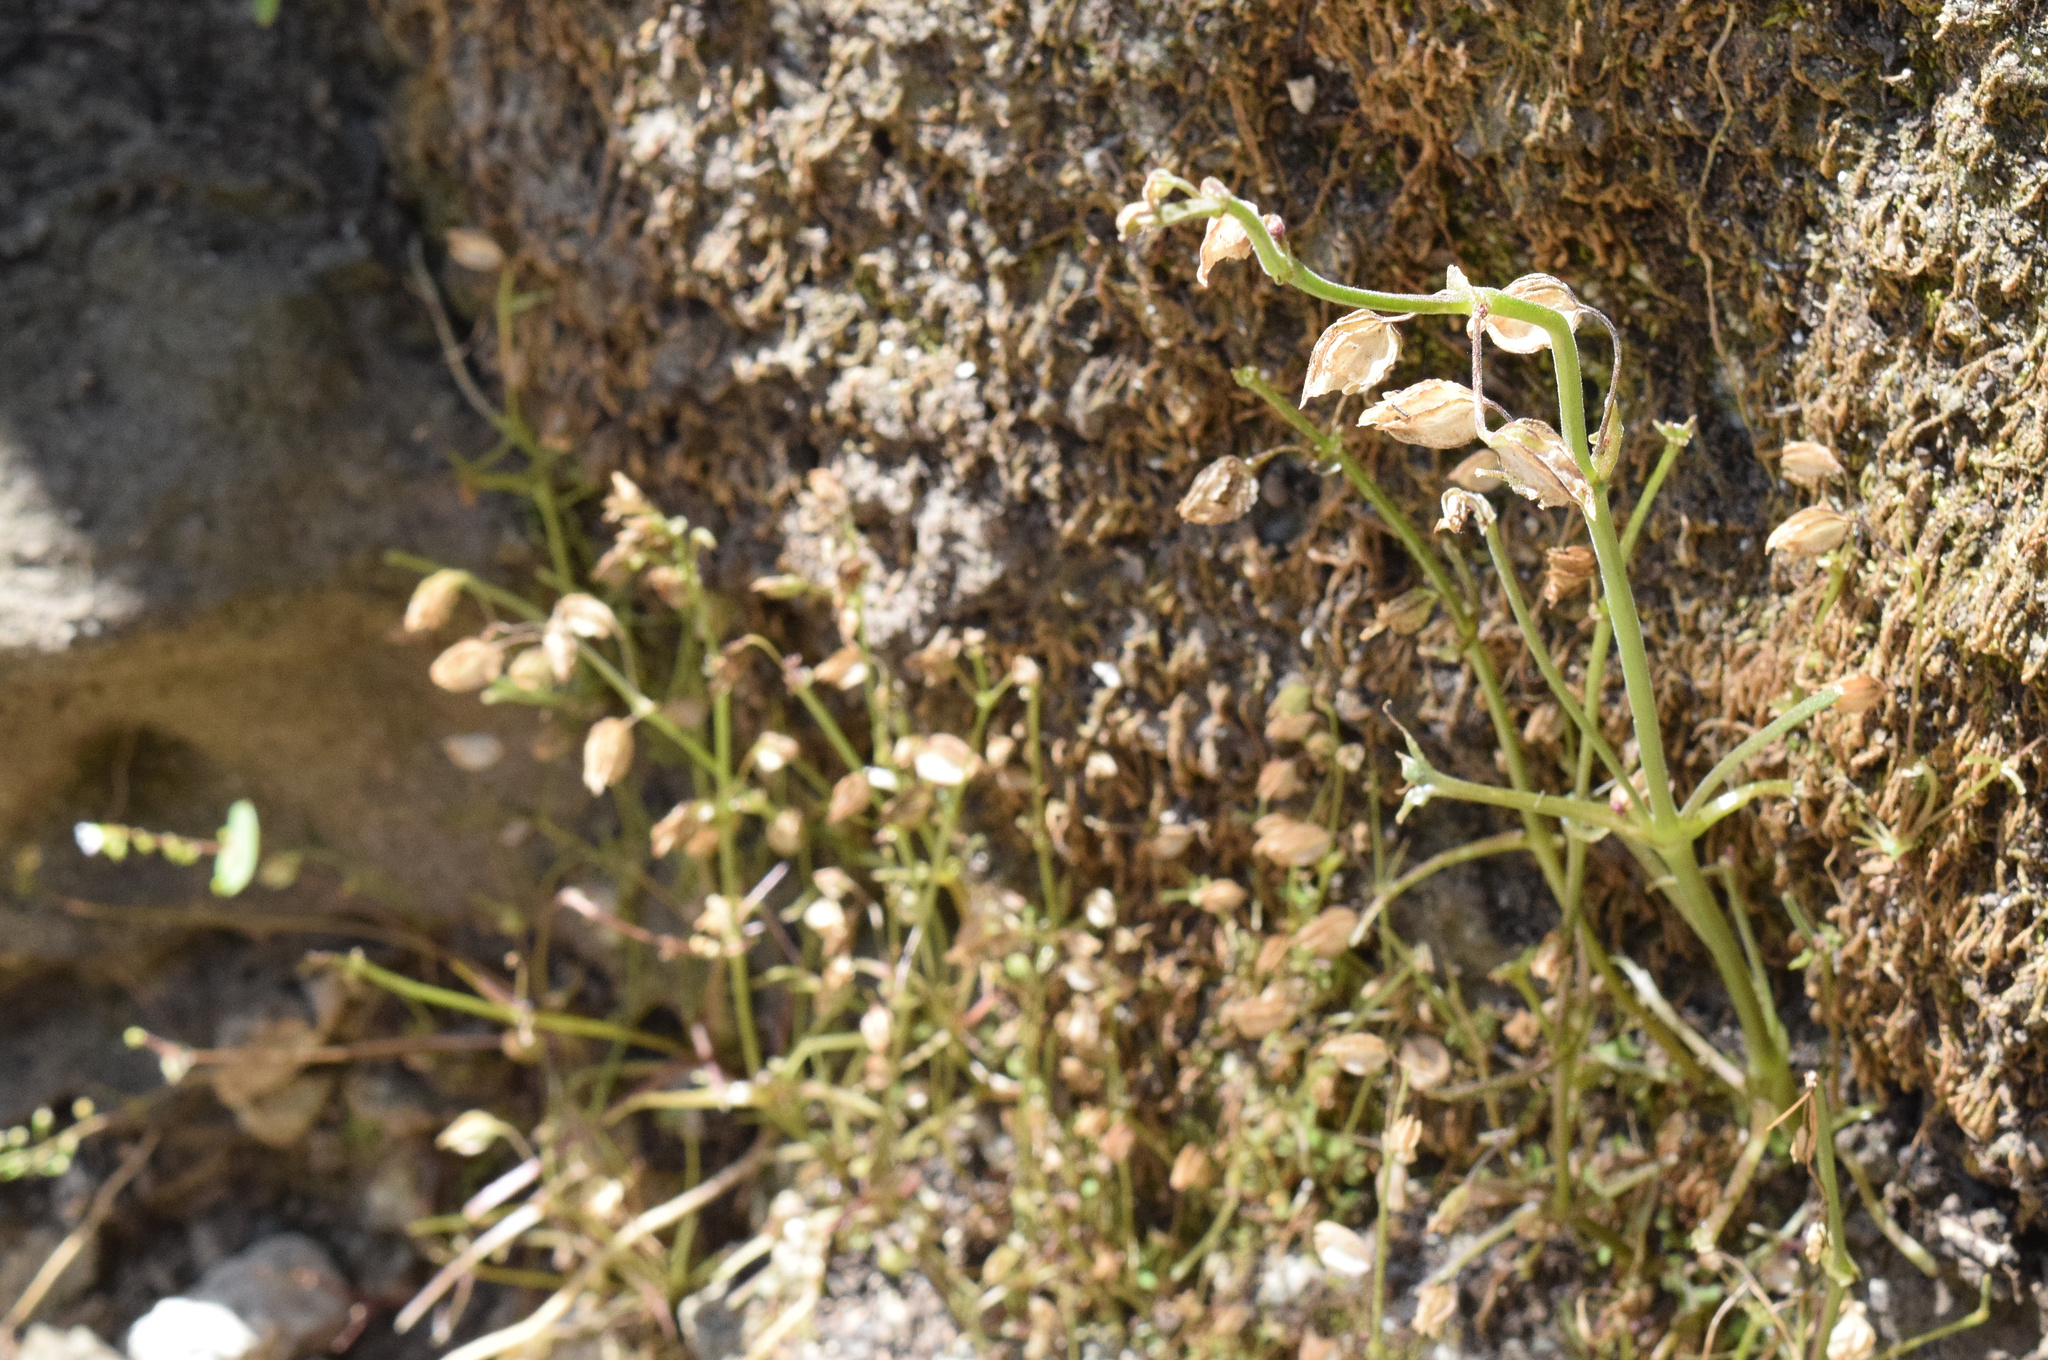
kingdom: Plantae
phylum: Tracheophyta
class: Magnoliopsida
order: Lamiales
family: Phrymaceae
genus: Erythranthe
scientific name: Erythranthe nasuta
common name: Sooke monkeyflower
